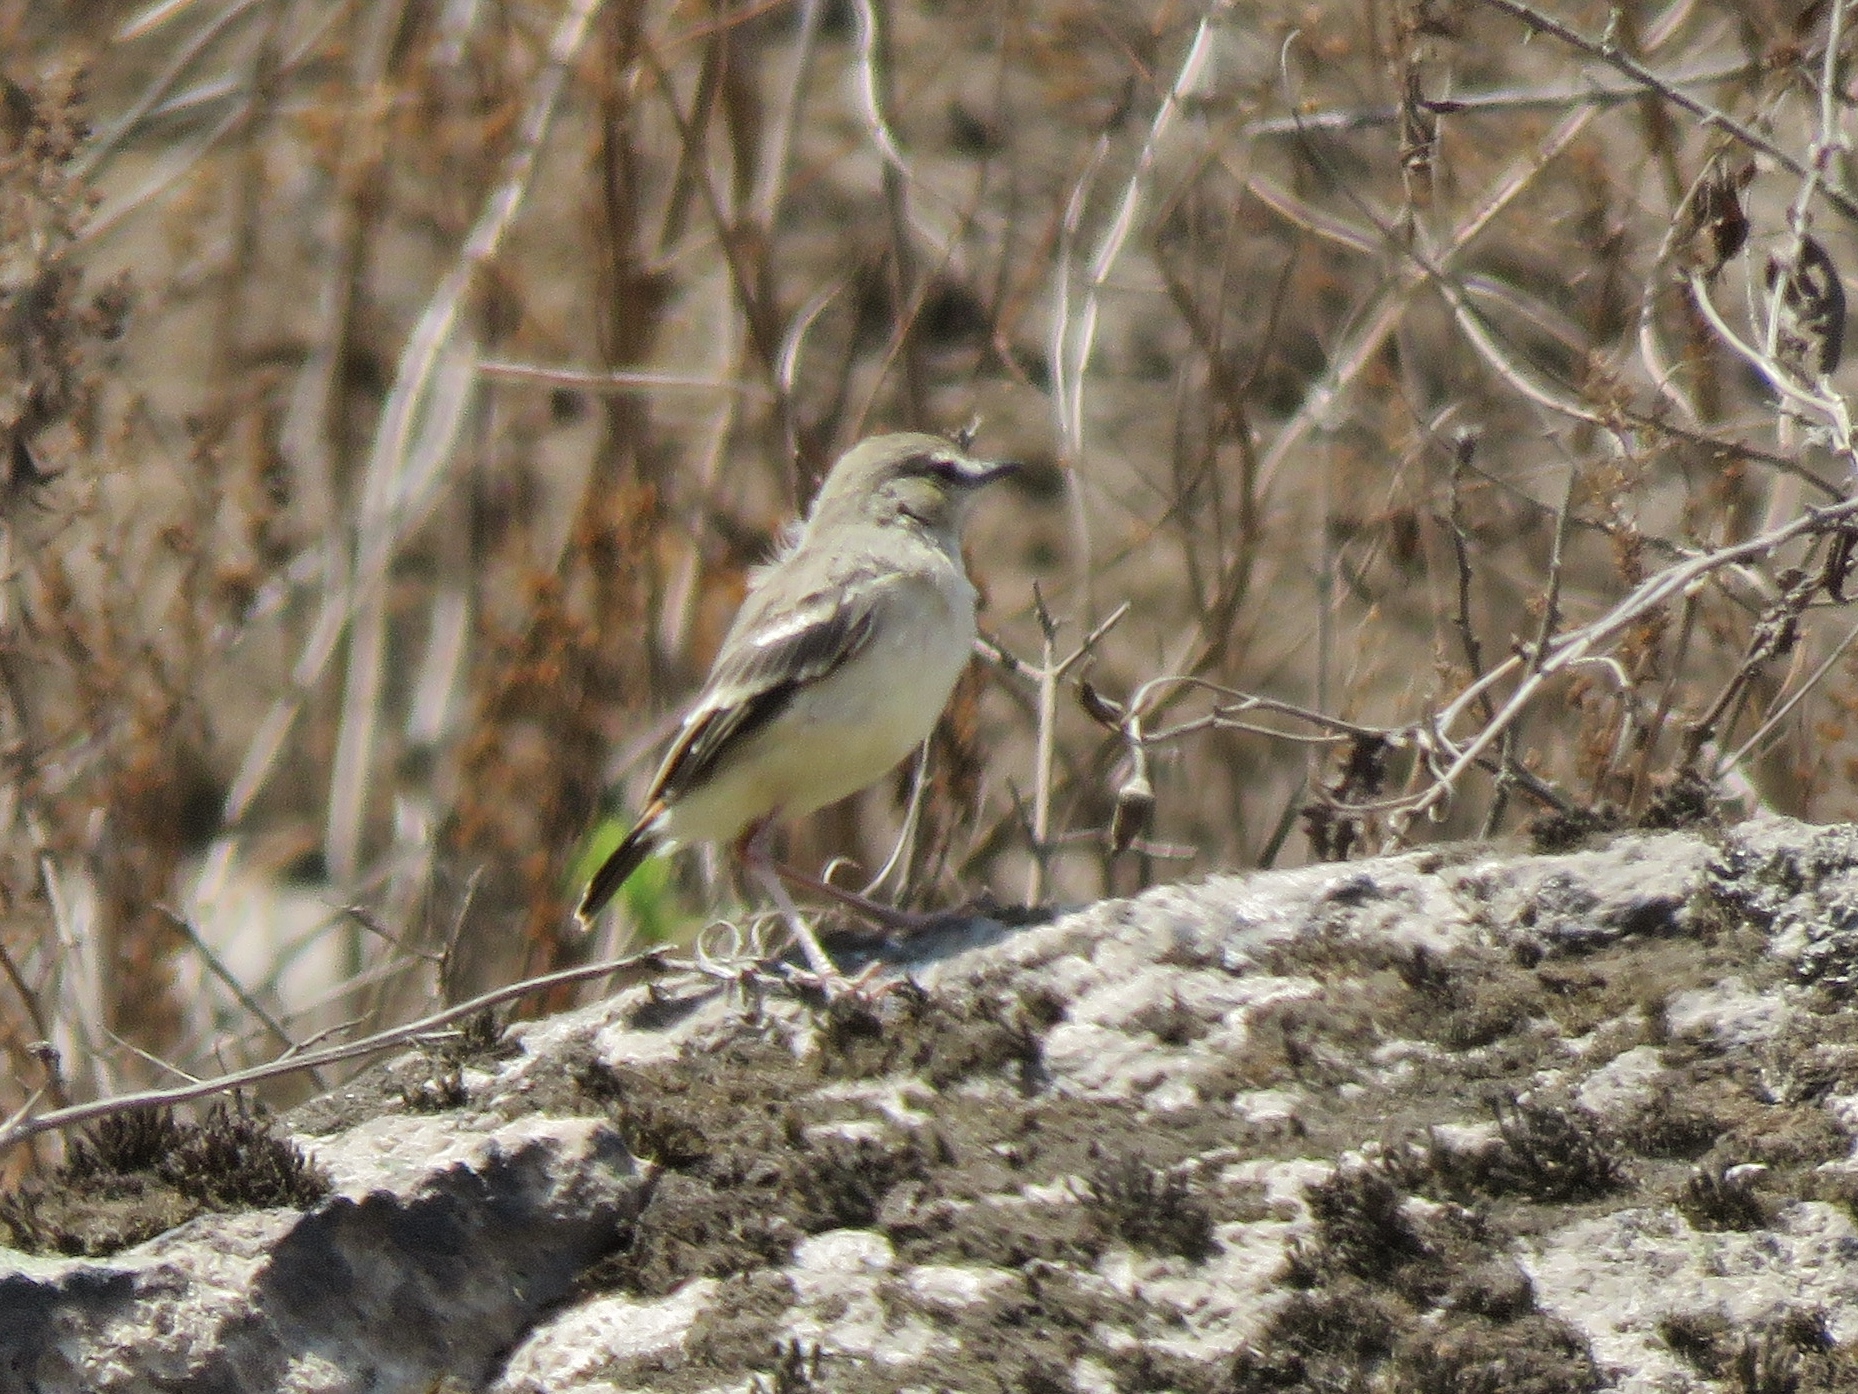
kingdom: Animalia
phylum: Chordata
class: Aves
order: Passeriformes
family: Tyrannidae
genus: Muscigralla
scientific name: Muscigralla brevicauda
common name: Short-tailed field tyrant
